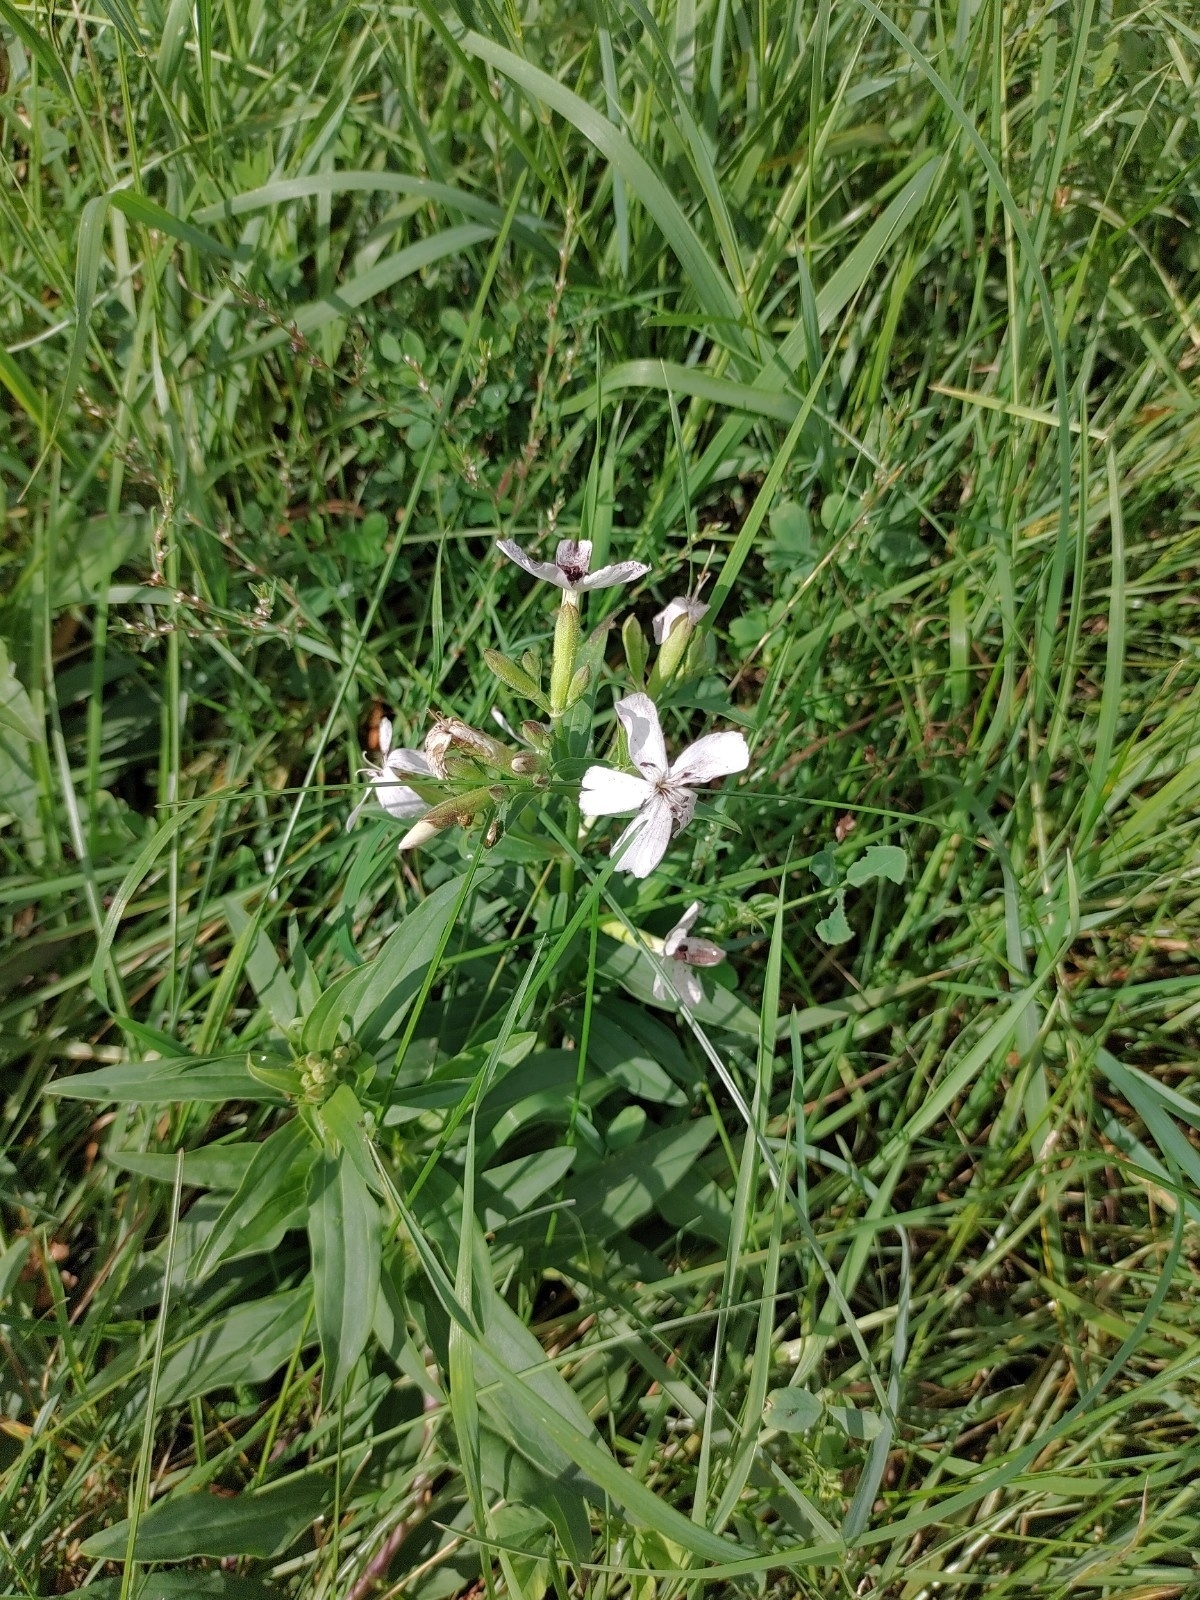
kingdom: Plantae
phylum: Tracheophyta
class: Magnoliopsida
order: Caryophyllales
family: Caryophyllaceae
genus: Saponaria
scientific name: Saponaria officinalis
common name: Soapwort
